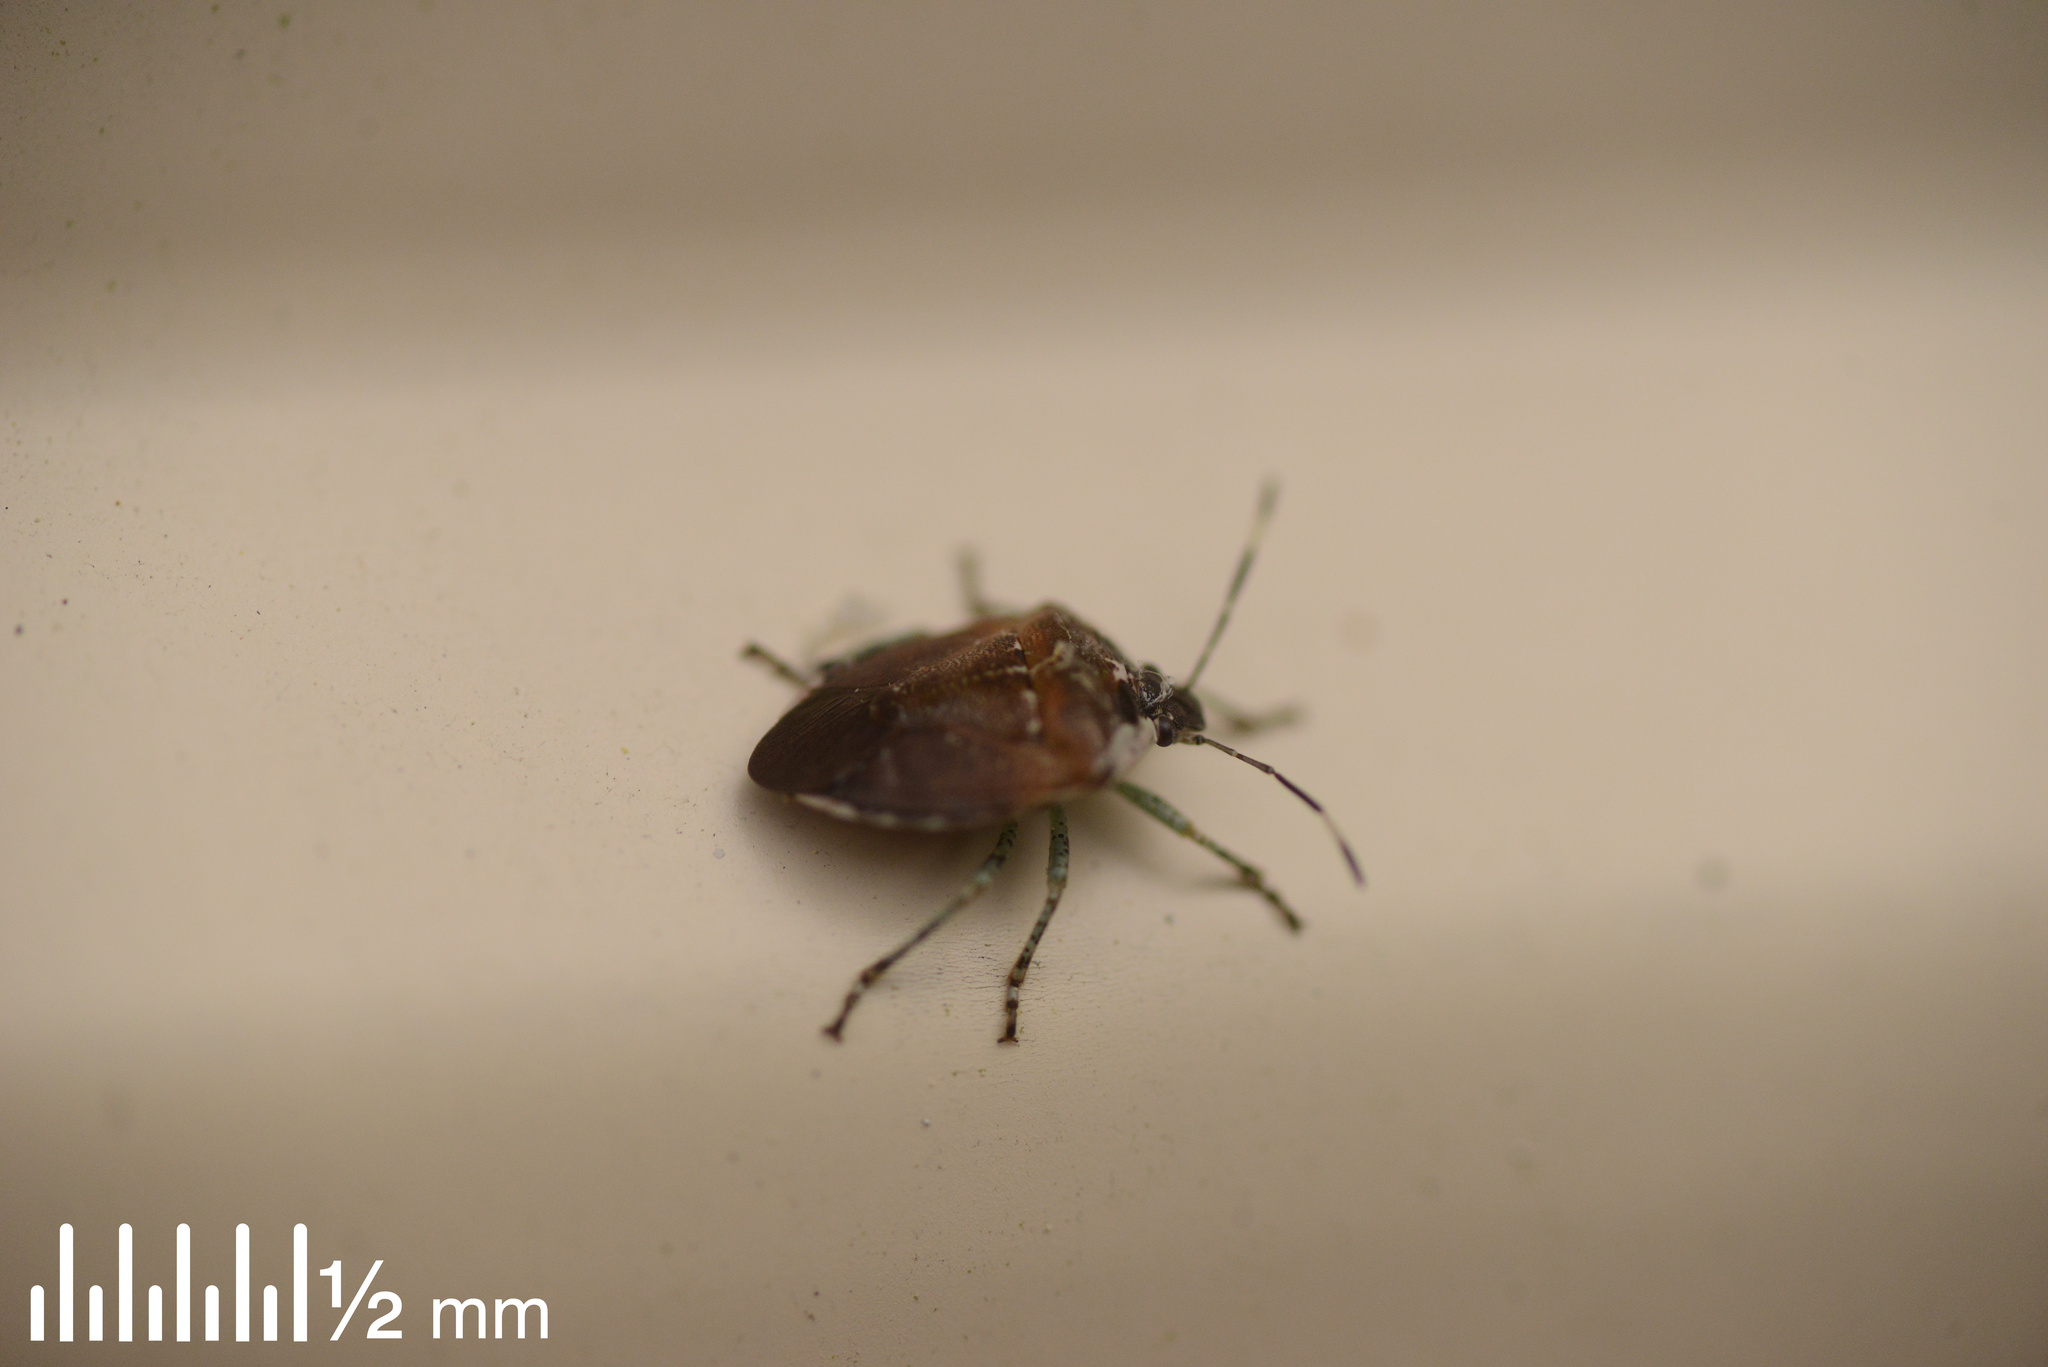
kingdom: Animalia
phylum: Arthropoda
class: Insecta
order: Hemiptera
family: Pentatomidae
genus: Monteithiella
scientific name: Monteithiella
